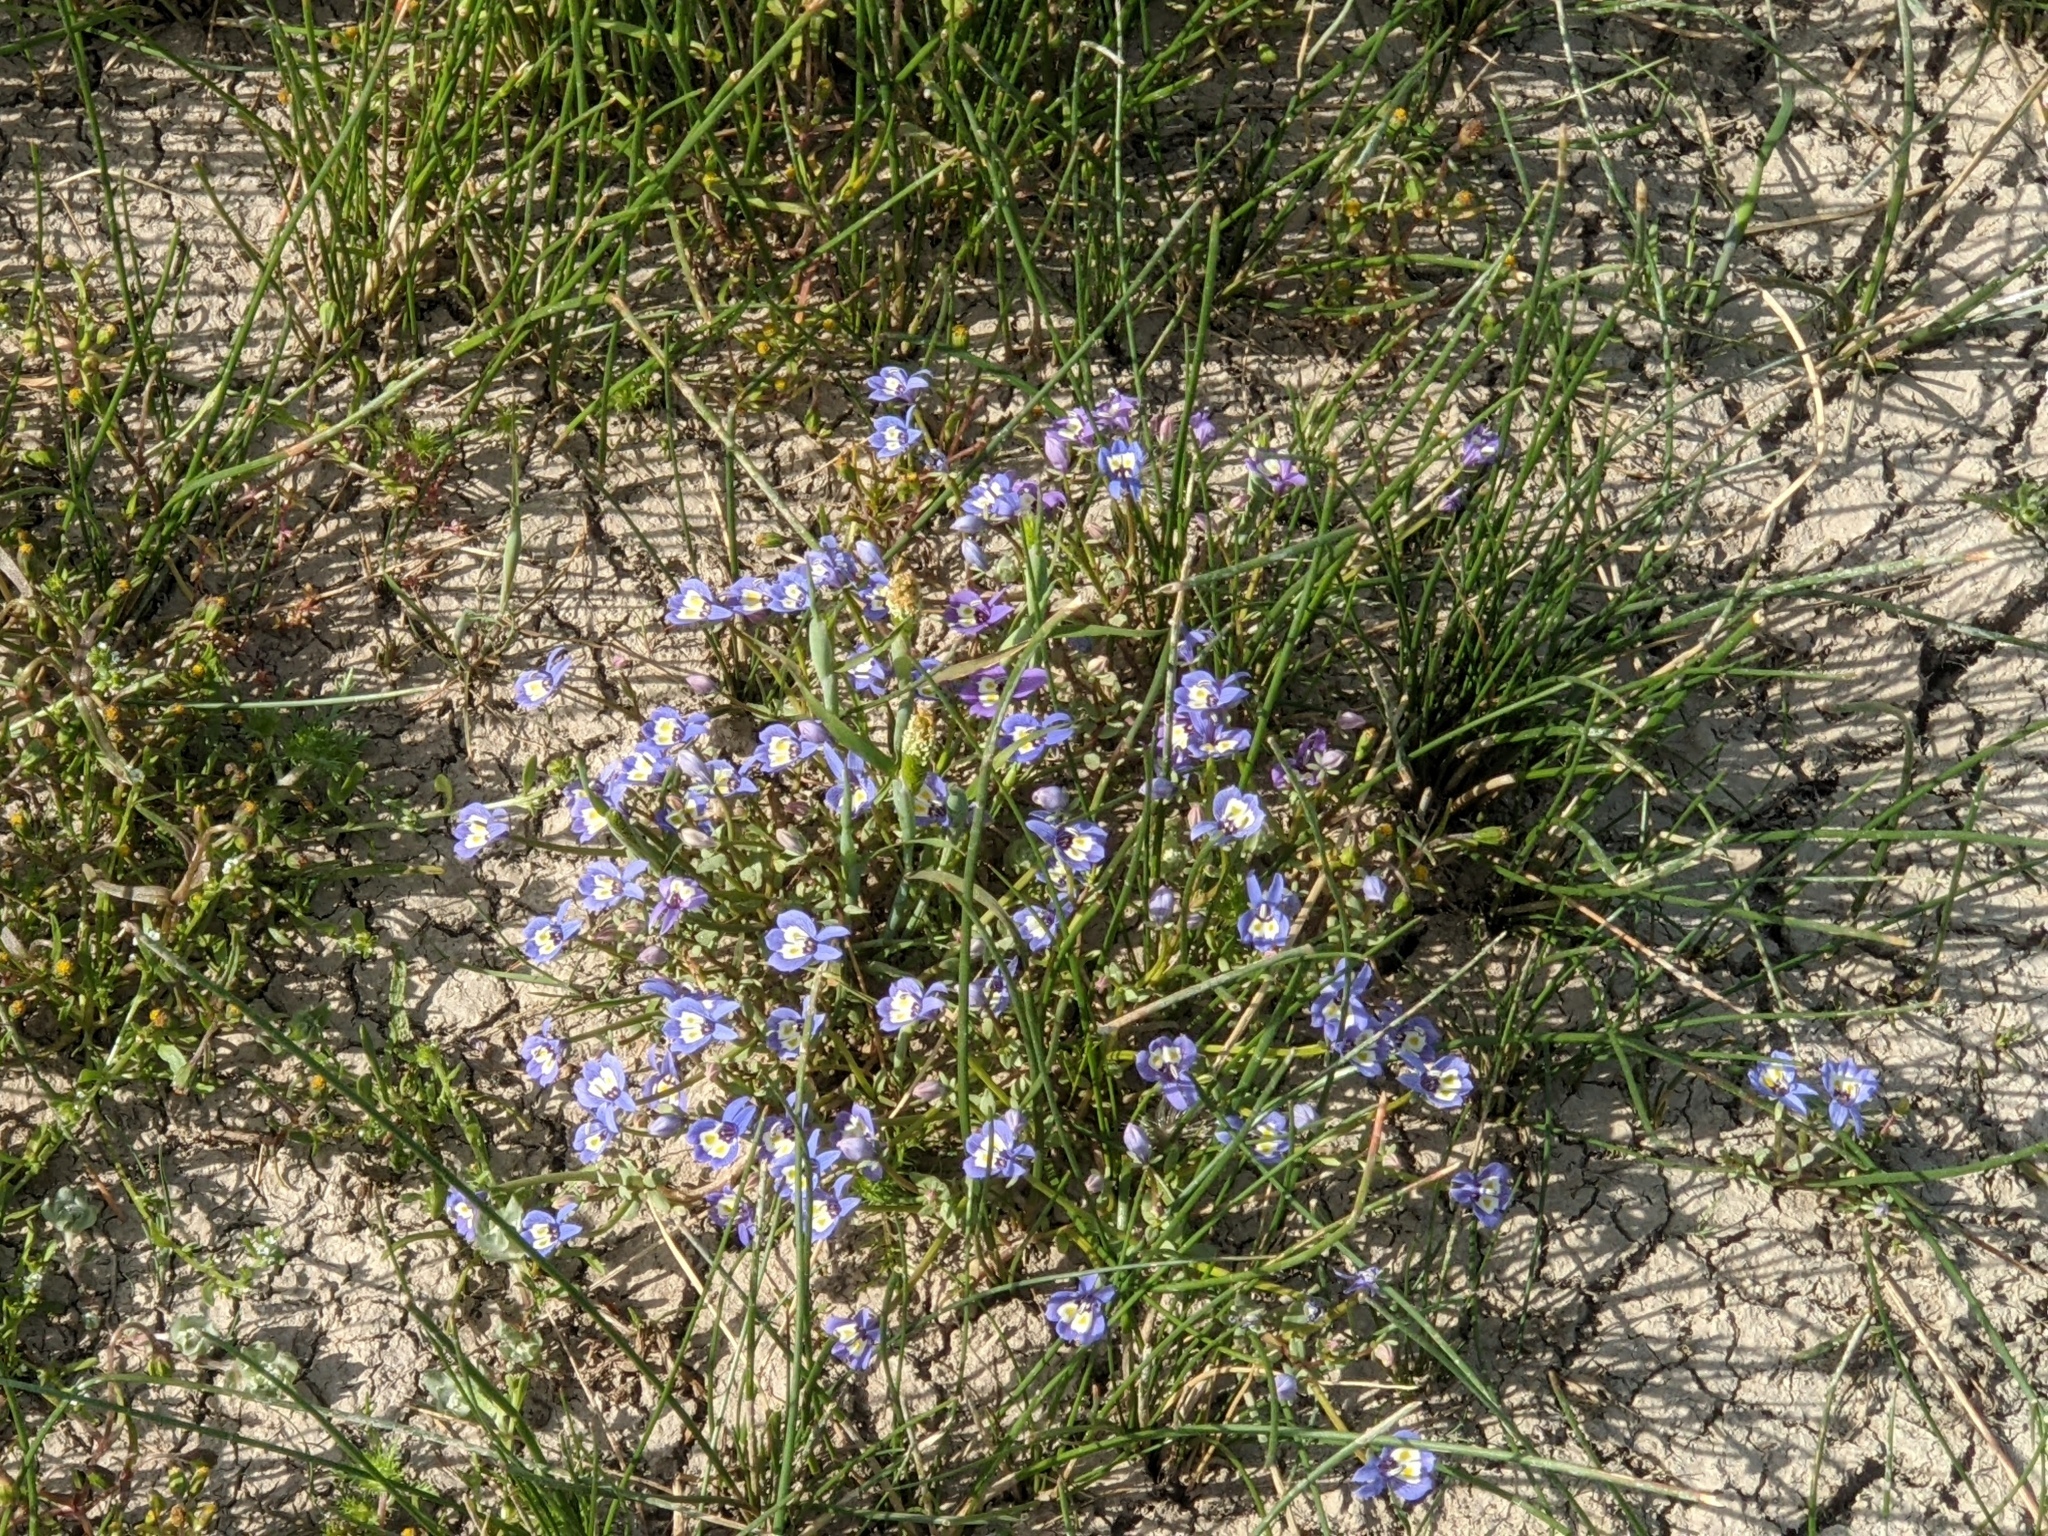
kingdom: Plantae
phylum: Tracheophyta
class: Magnoliopsida
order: Asterales
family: Campanulaceae
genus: Downingia
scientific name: Downingia insignis
